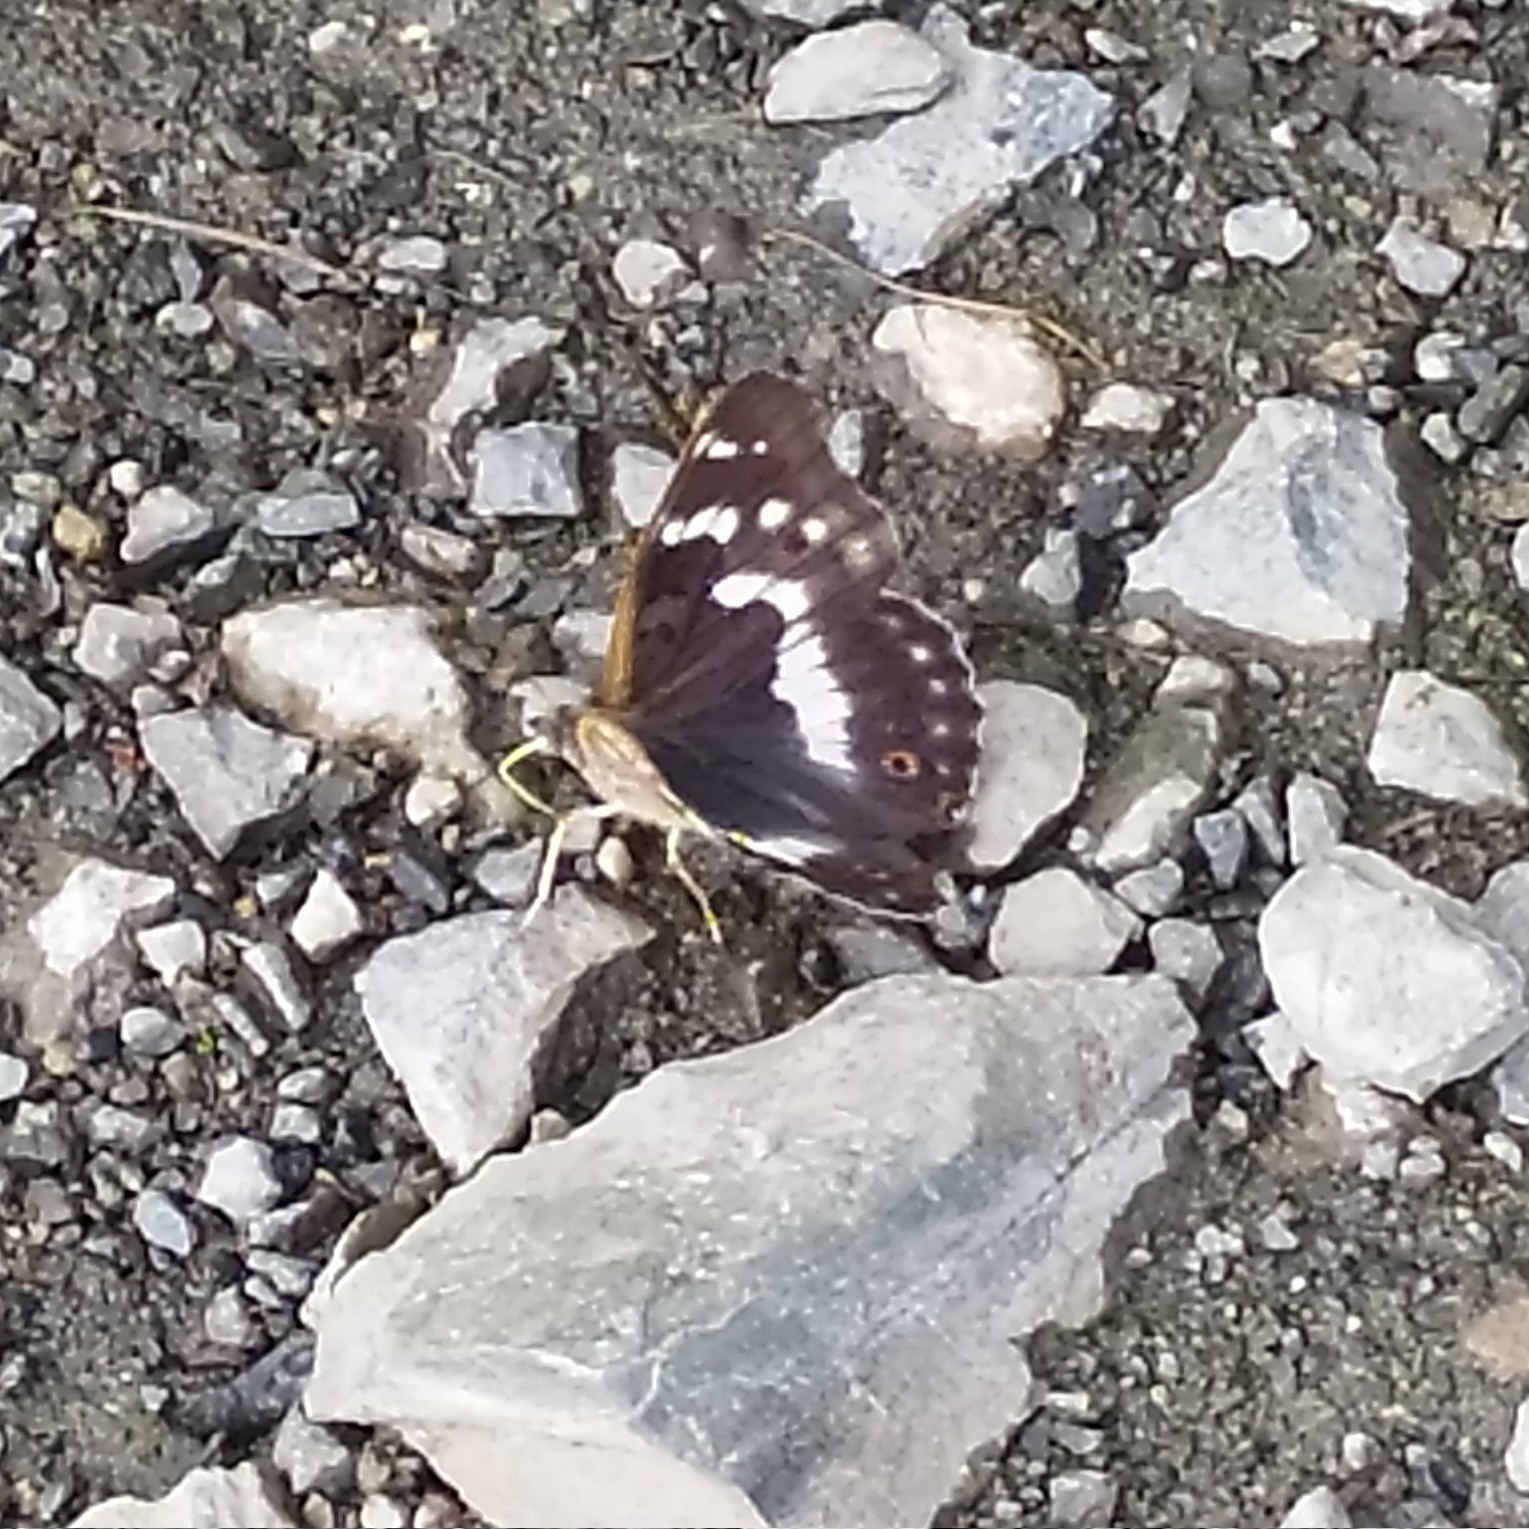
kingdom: Animalia
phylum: Arthropoda
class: Insecta
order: Lepidoptera
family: Nymphalidae
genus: Apatura
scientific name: Apatura ilia
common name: Lesser purple emperor
